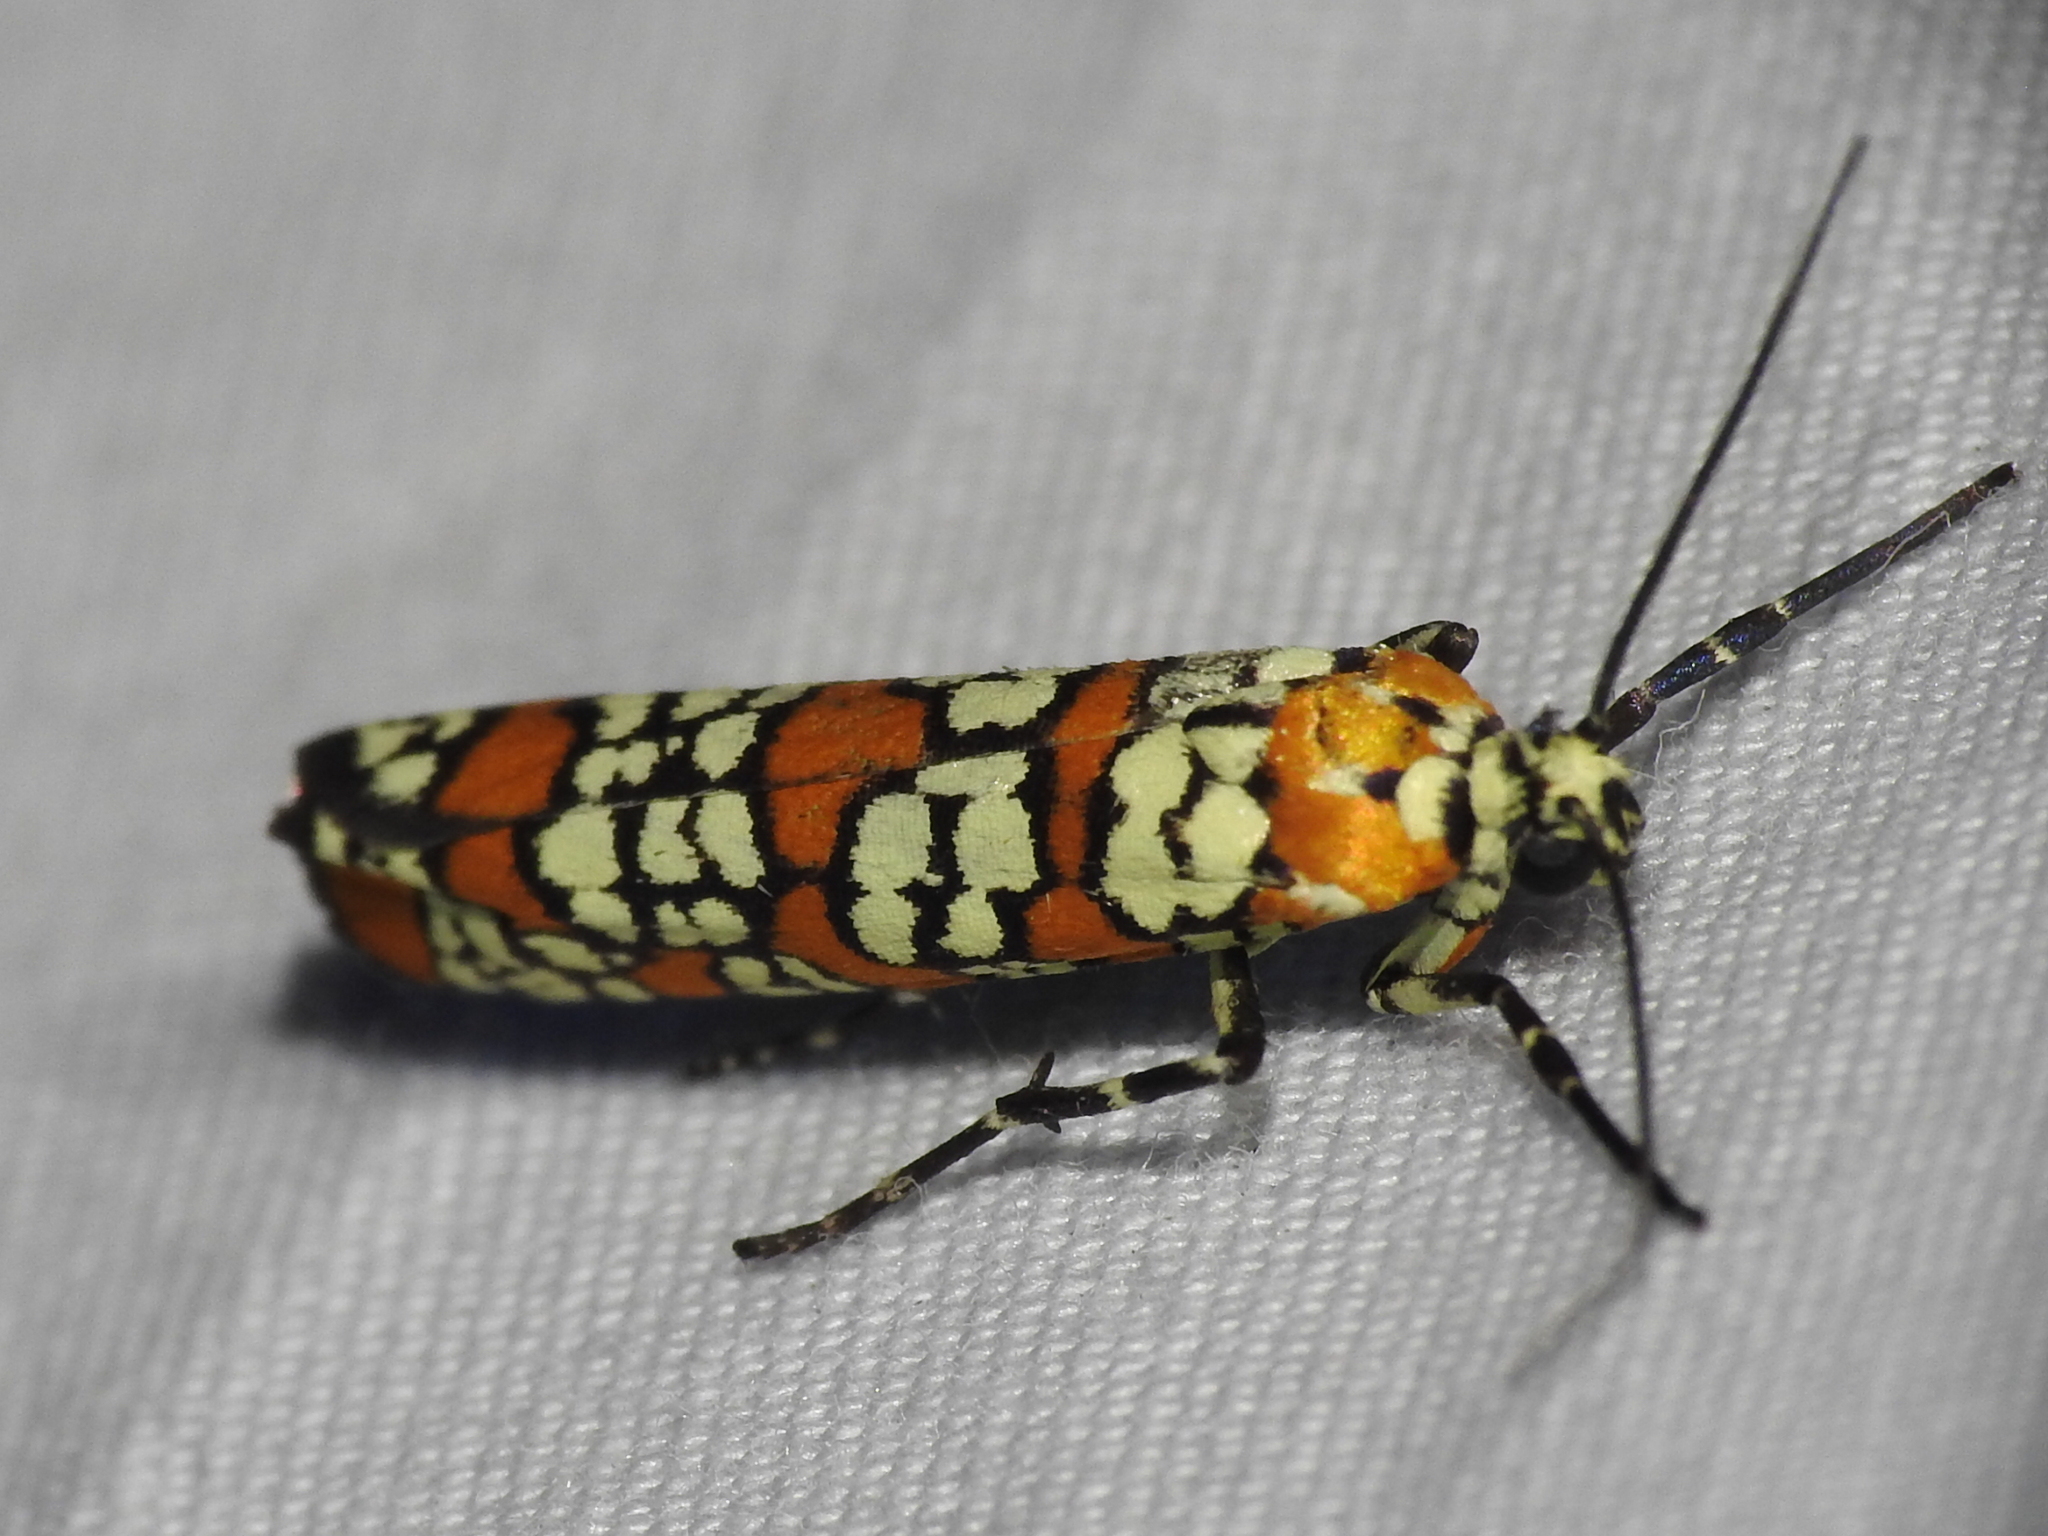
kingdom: Animalia
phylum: Arthropoda
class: Insecta
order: Lepidoptera
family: Attevidae
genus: Atteva
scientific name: Atteva punctella
